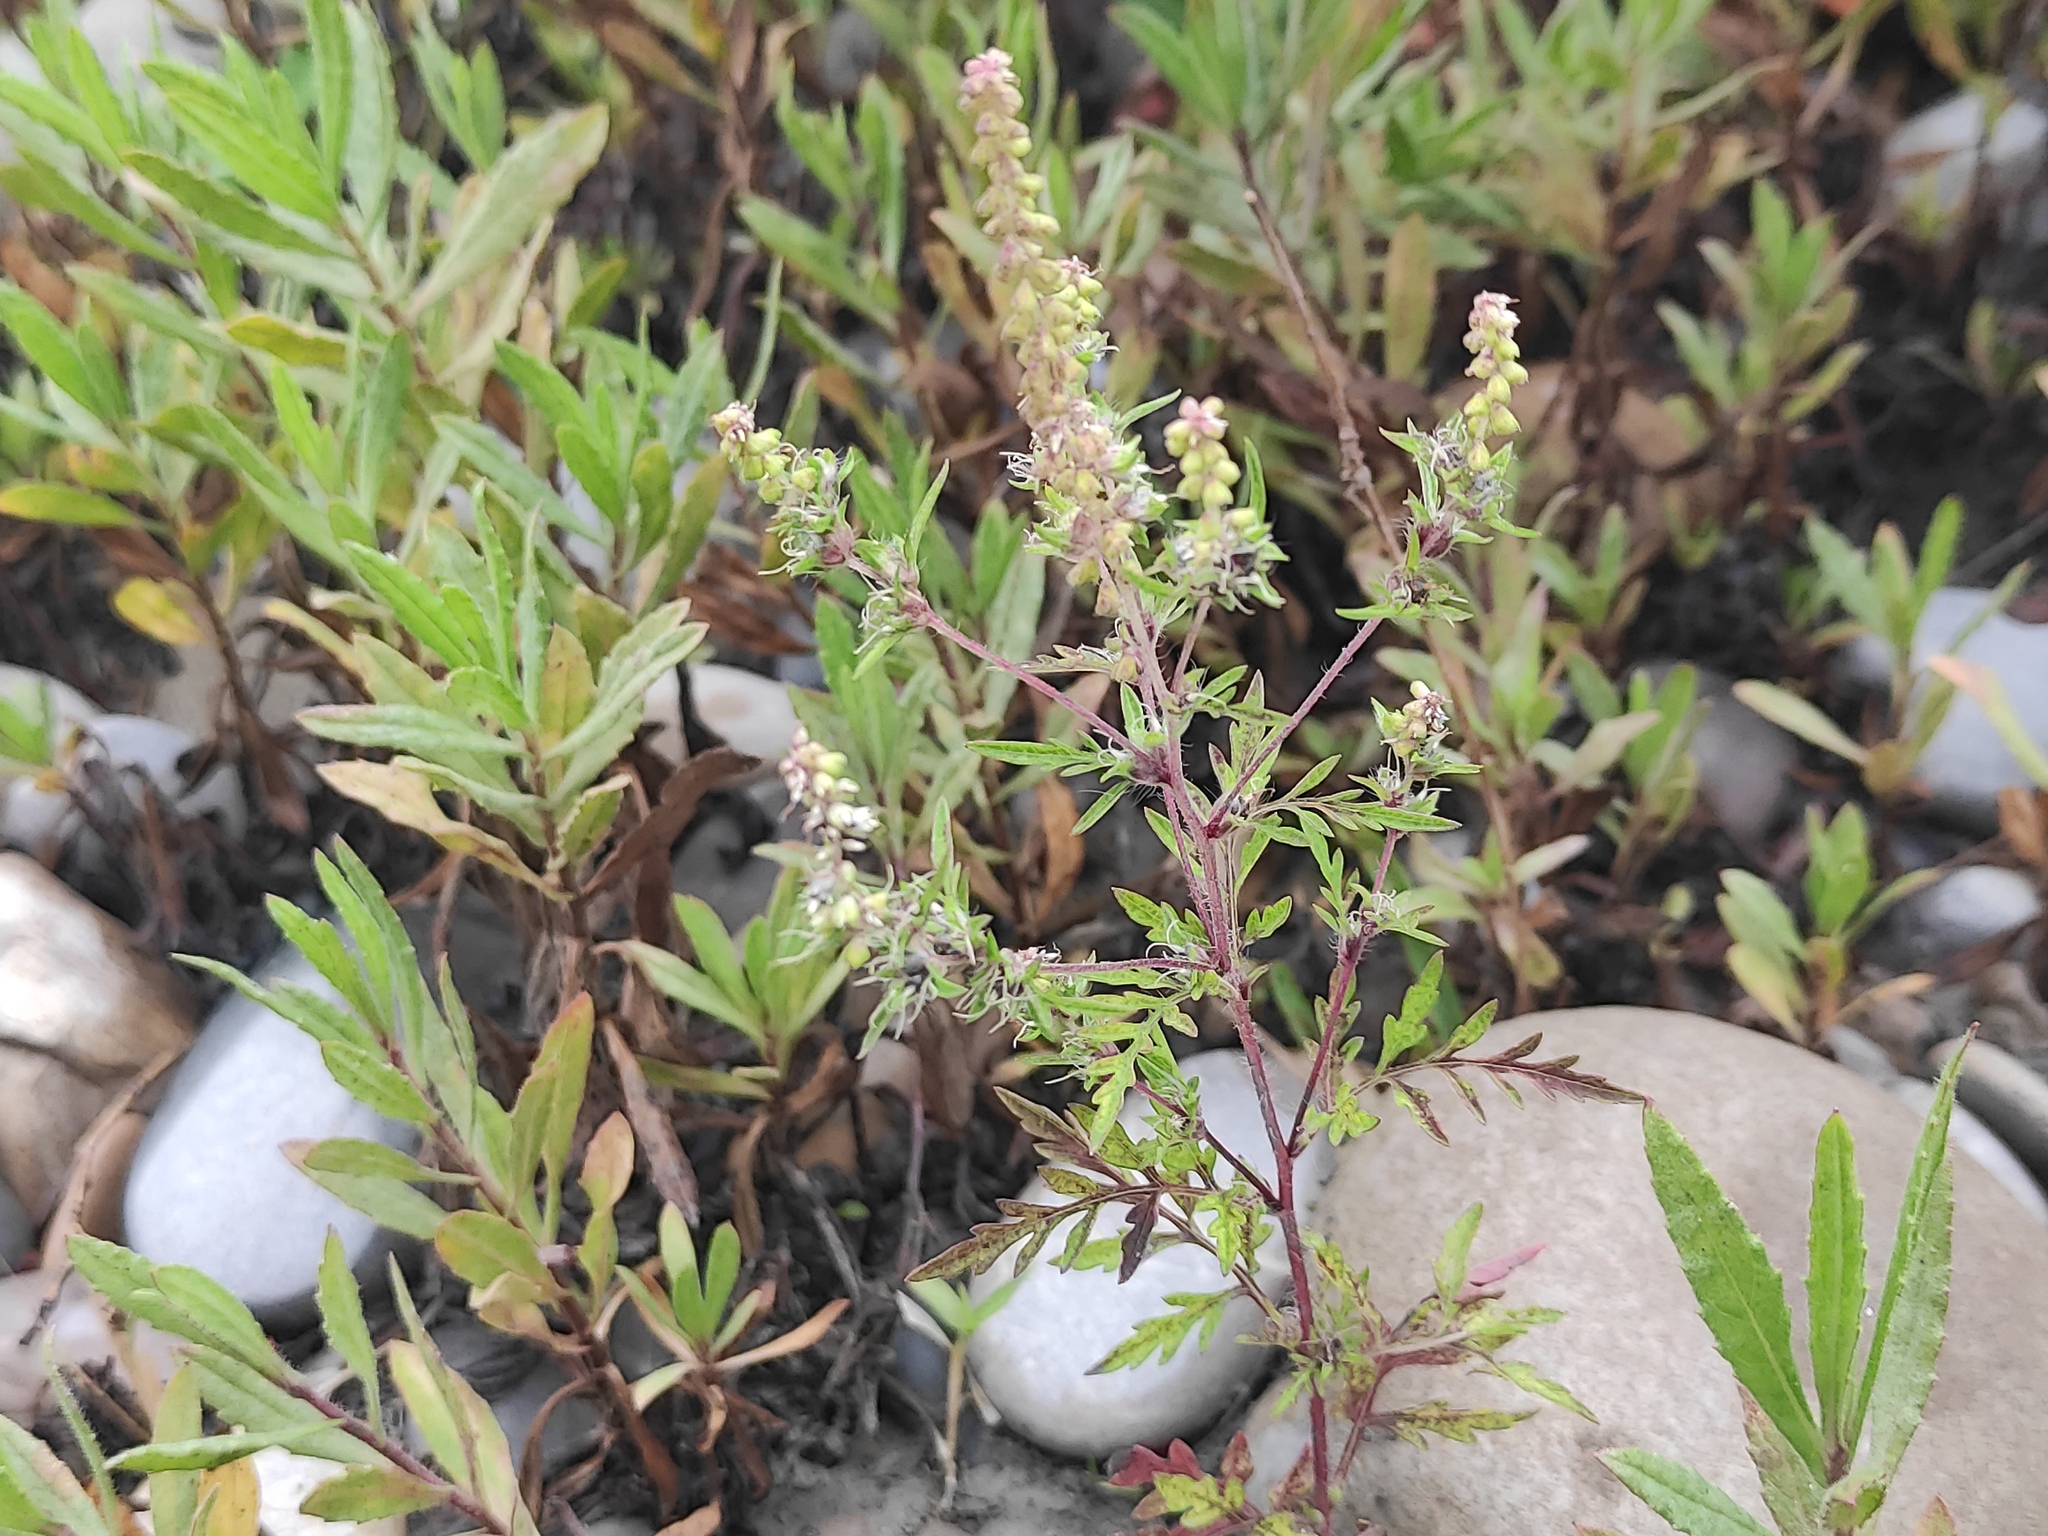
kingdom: Plantae
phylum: Tracheophyta
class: Magnoliopsida
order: Asterales
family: Asteraceae
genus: Ambrosia
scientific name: Ambrosia artemisiifolia
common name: Annual ragweed
